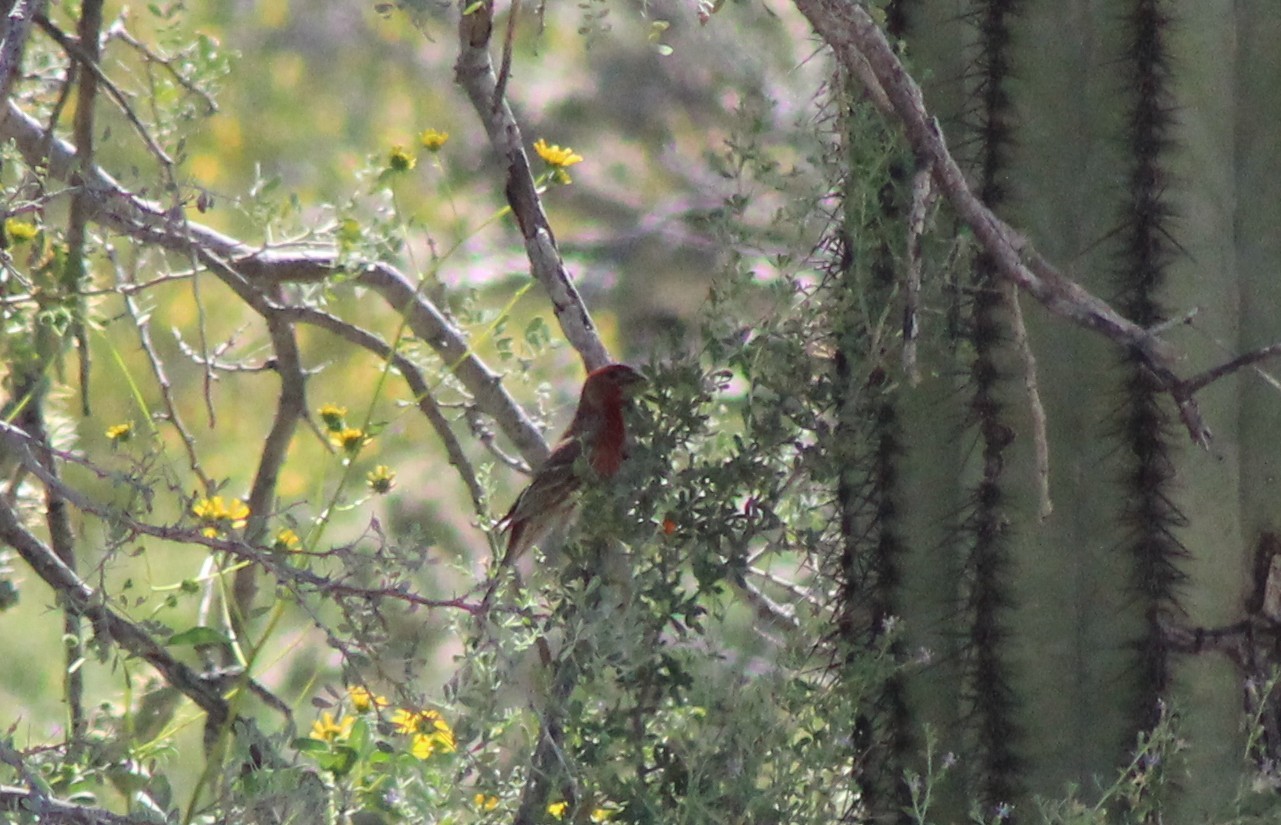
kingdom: Animalia
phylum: Chordata
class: Aves
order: Passeriformes
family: Fringillidae
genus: Haemorhous
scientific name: Haemorhous mexicanus
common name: House finch
